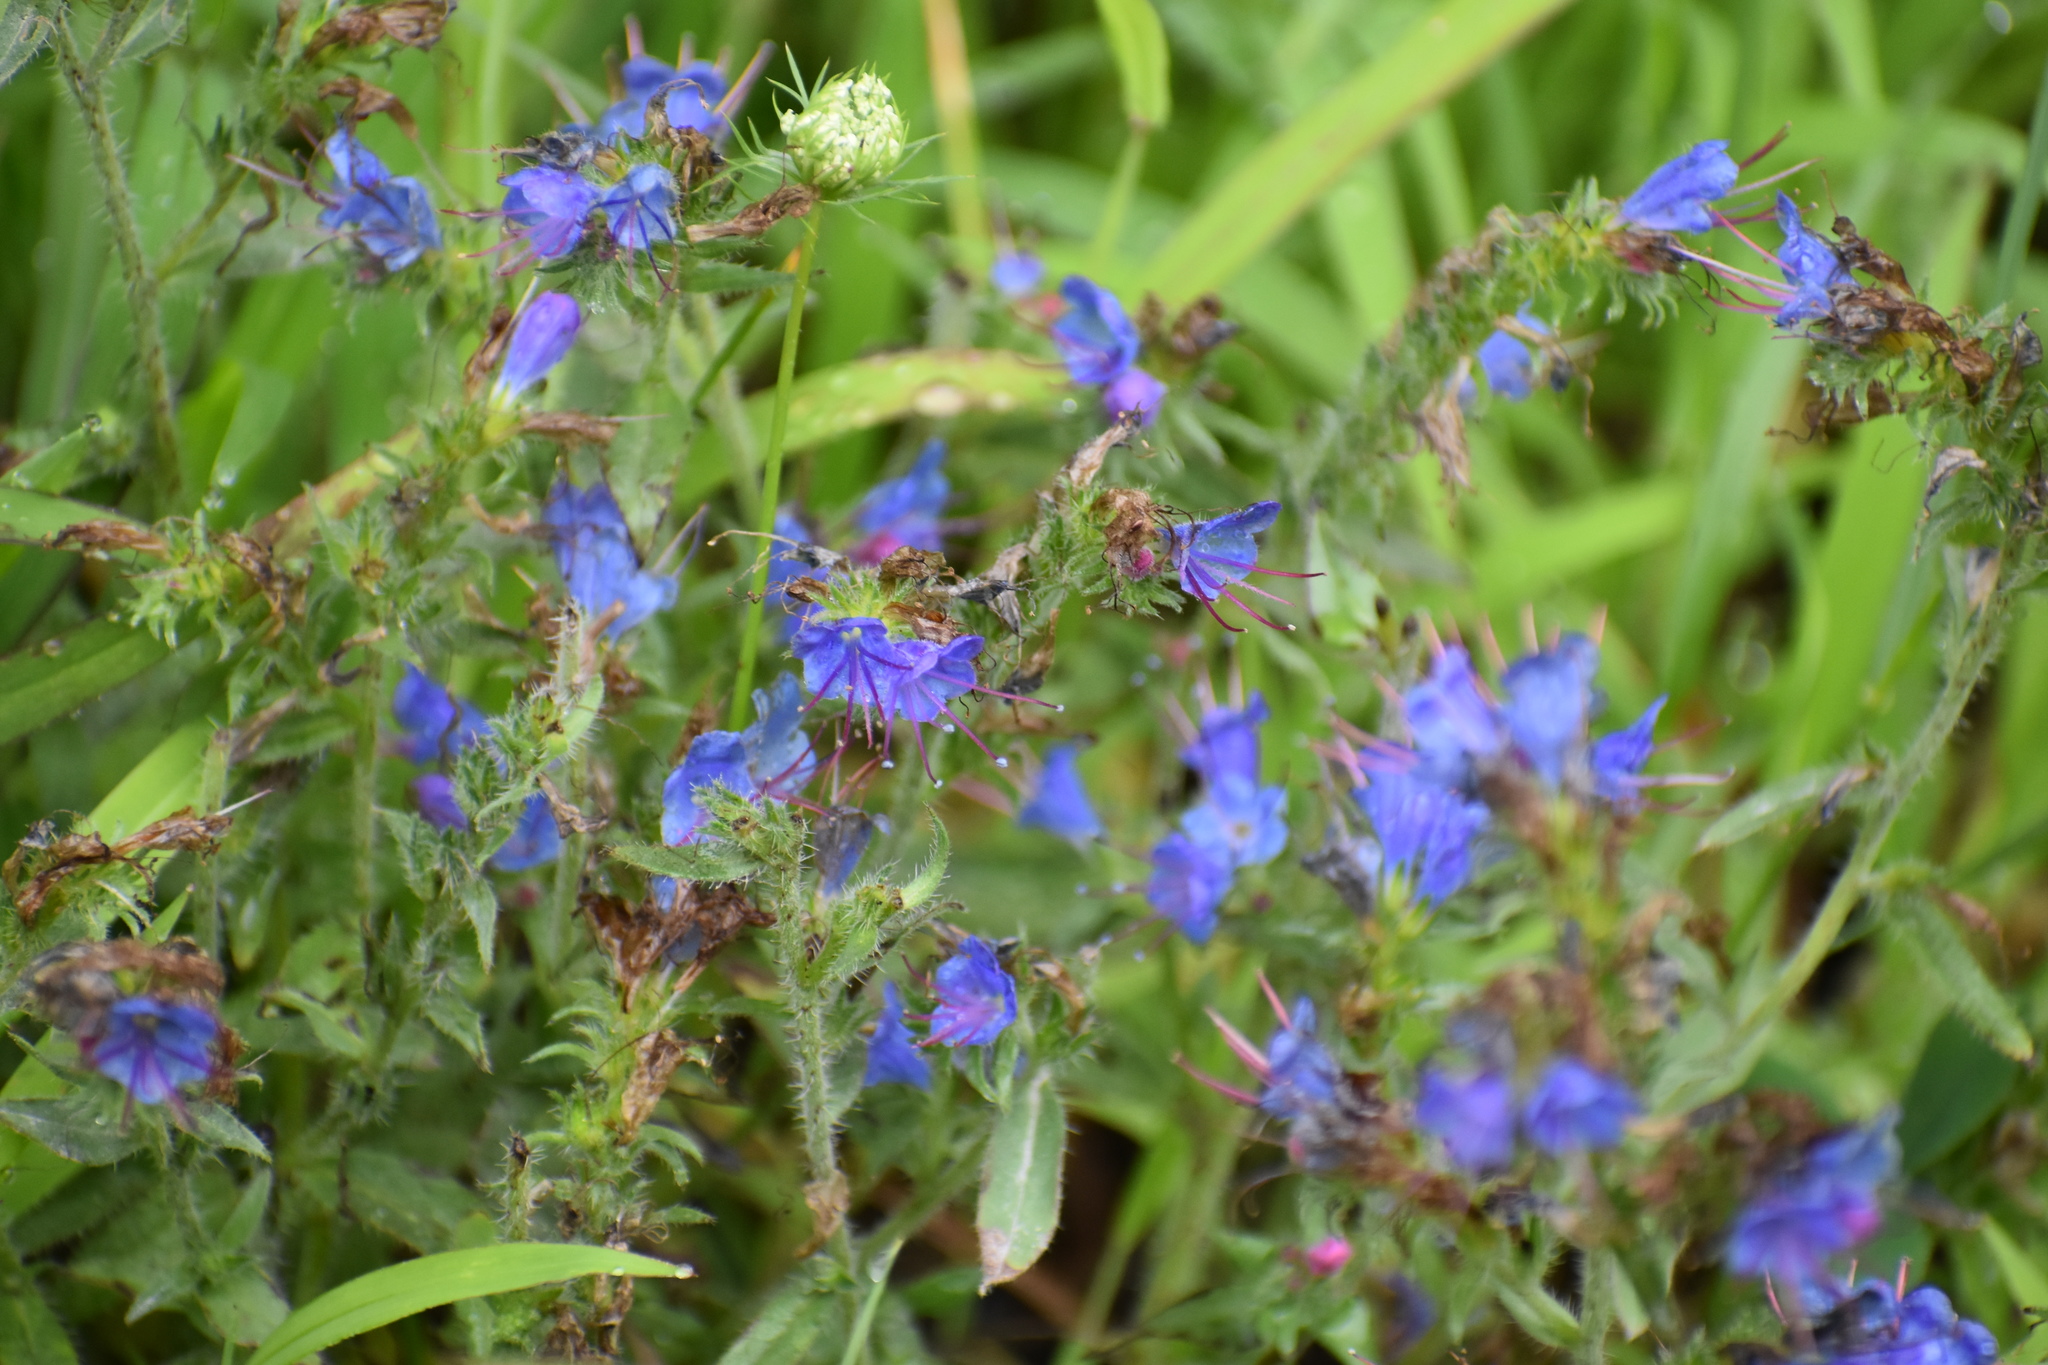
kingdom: Plantae
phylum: Tracheophyta
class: Magnoliopsida
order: Boraginales
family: Boraginaceae
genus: Echium
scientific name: Echium vulgare
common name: Common viper's bugloss
